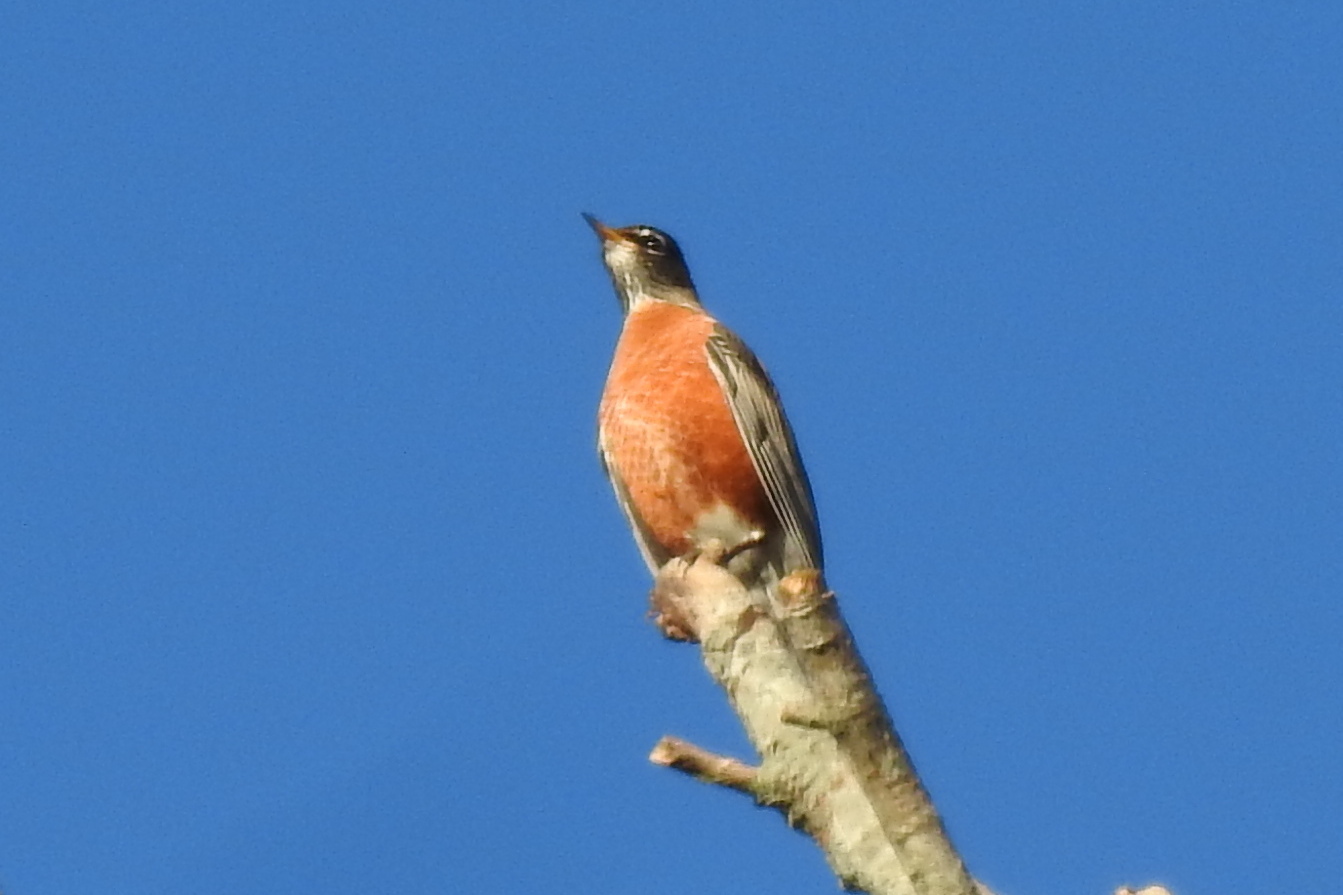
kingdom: Animalia
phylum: Chordata
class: Aves
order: Passeriformes
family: Turdidae
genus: Turdus
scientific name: Turdus migratorius
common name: American robin
